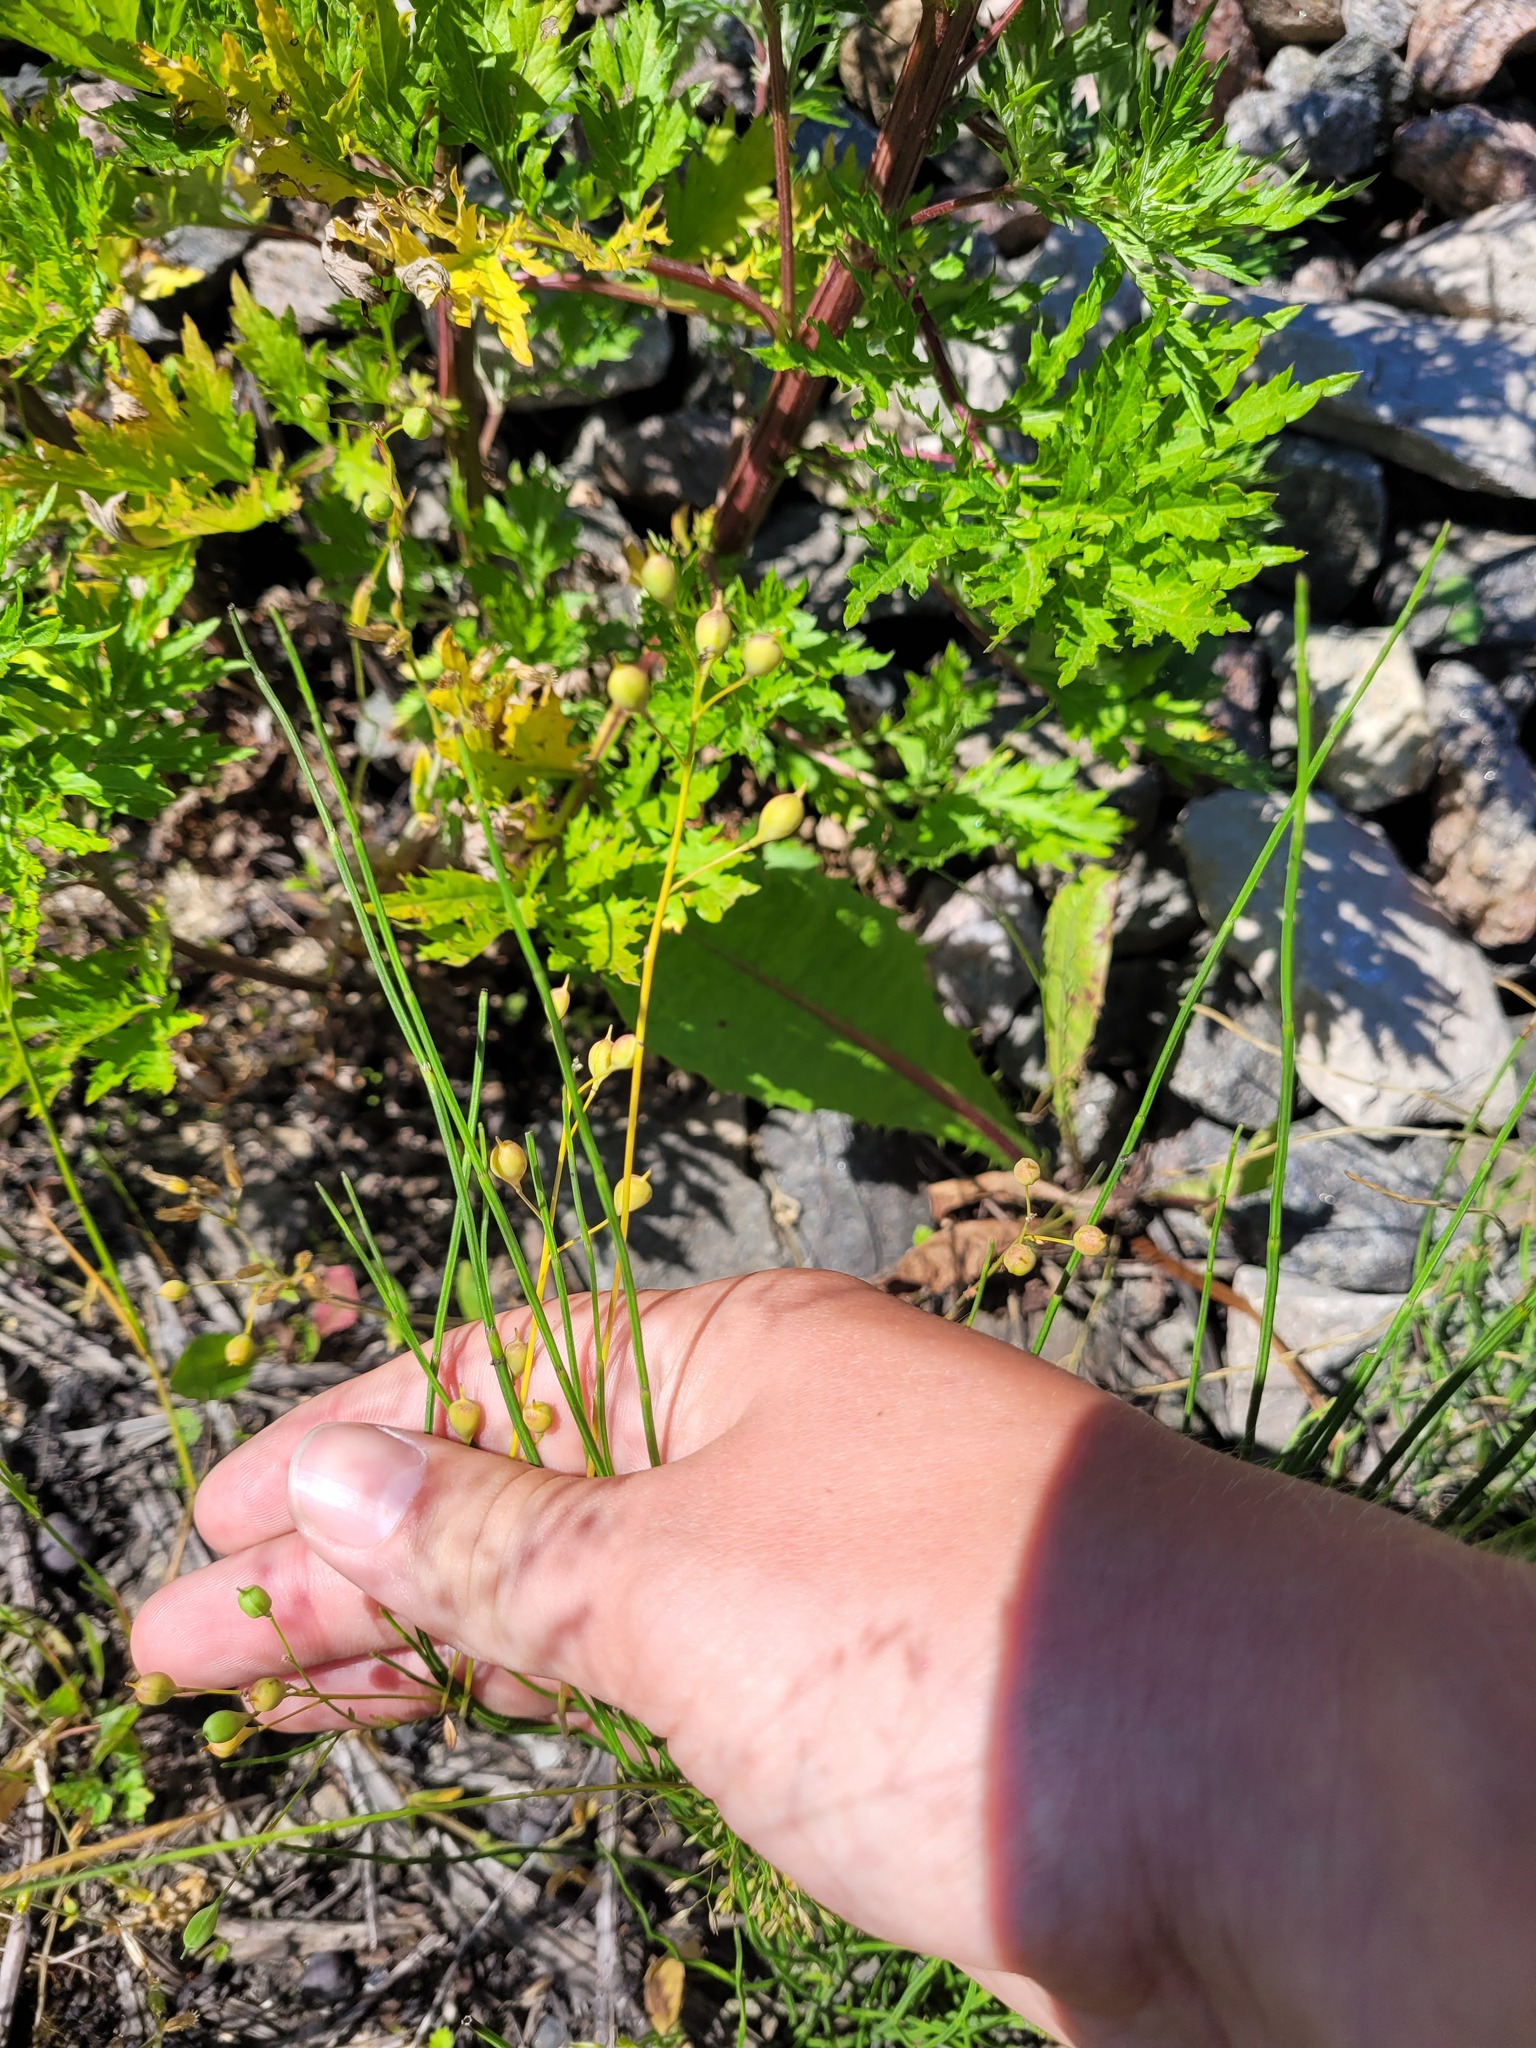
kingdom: Plantae
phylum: Tracheophyta
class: Magnoliopsida
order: Brassicales
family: Brassicaceae
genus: Camelina
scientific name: Camelina sativa
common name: Gold-of-pleasure
